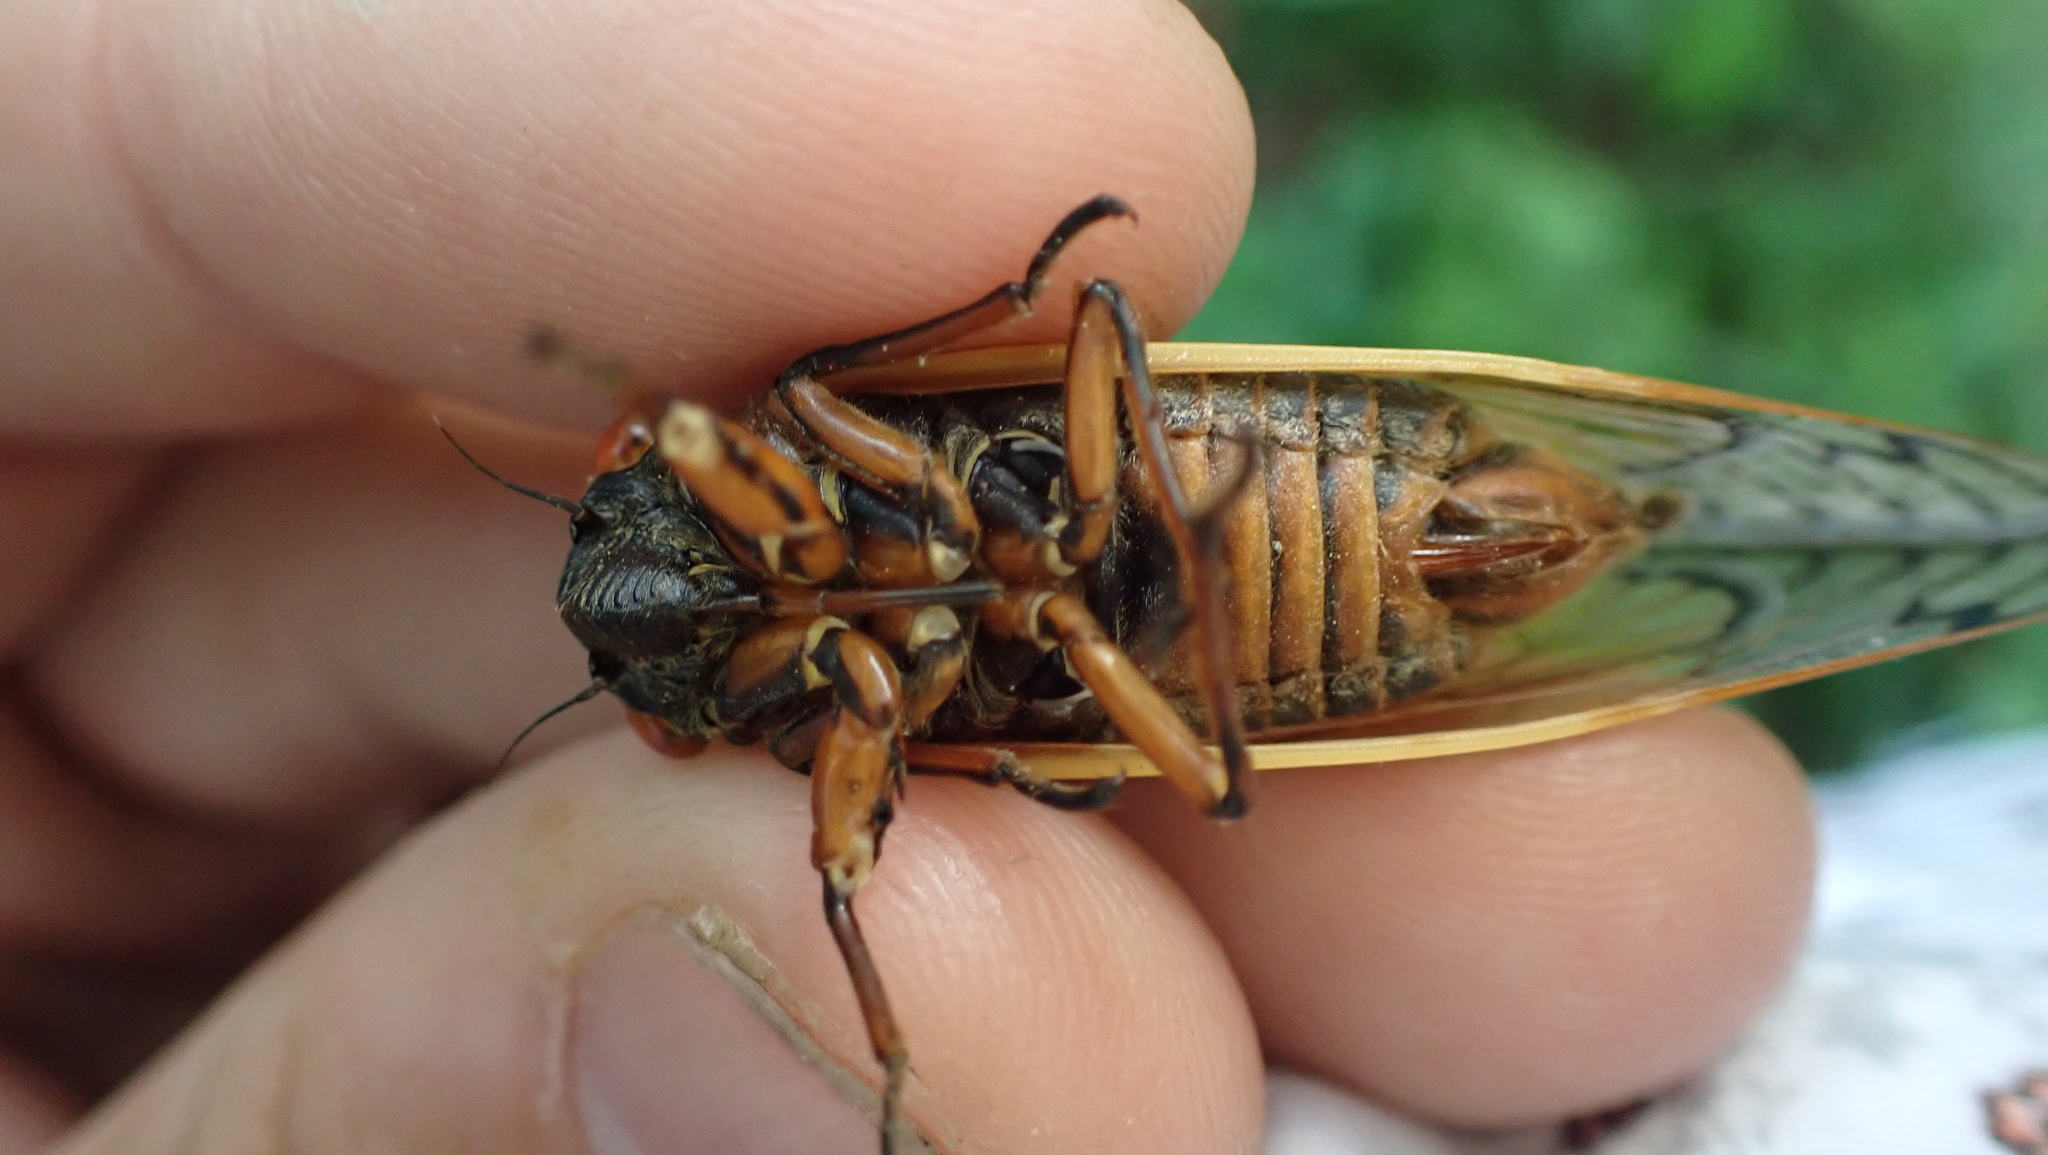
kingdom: Animalia
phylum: Arthropoda
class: Insecta
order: Hemiptera
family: Cicadidae
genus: Magicicada
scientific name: Magicicada septendecim
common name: Periodical cicada
